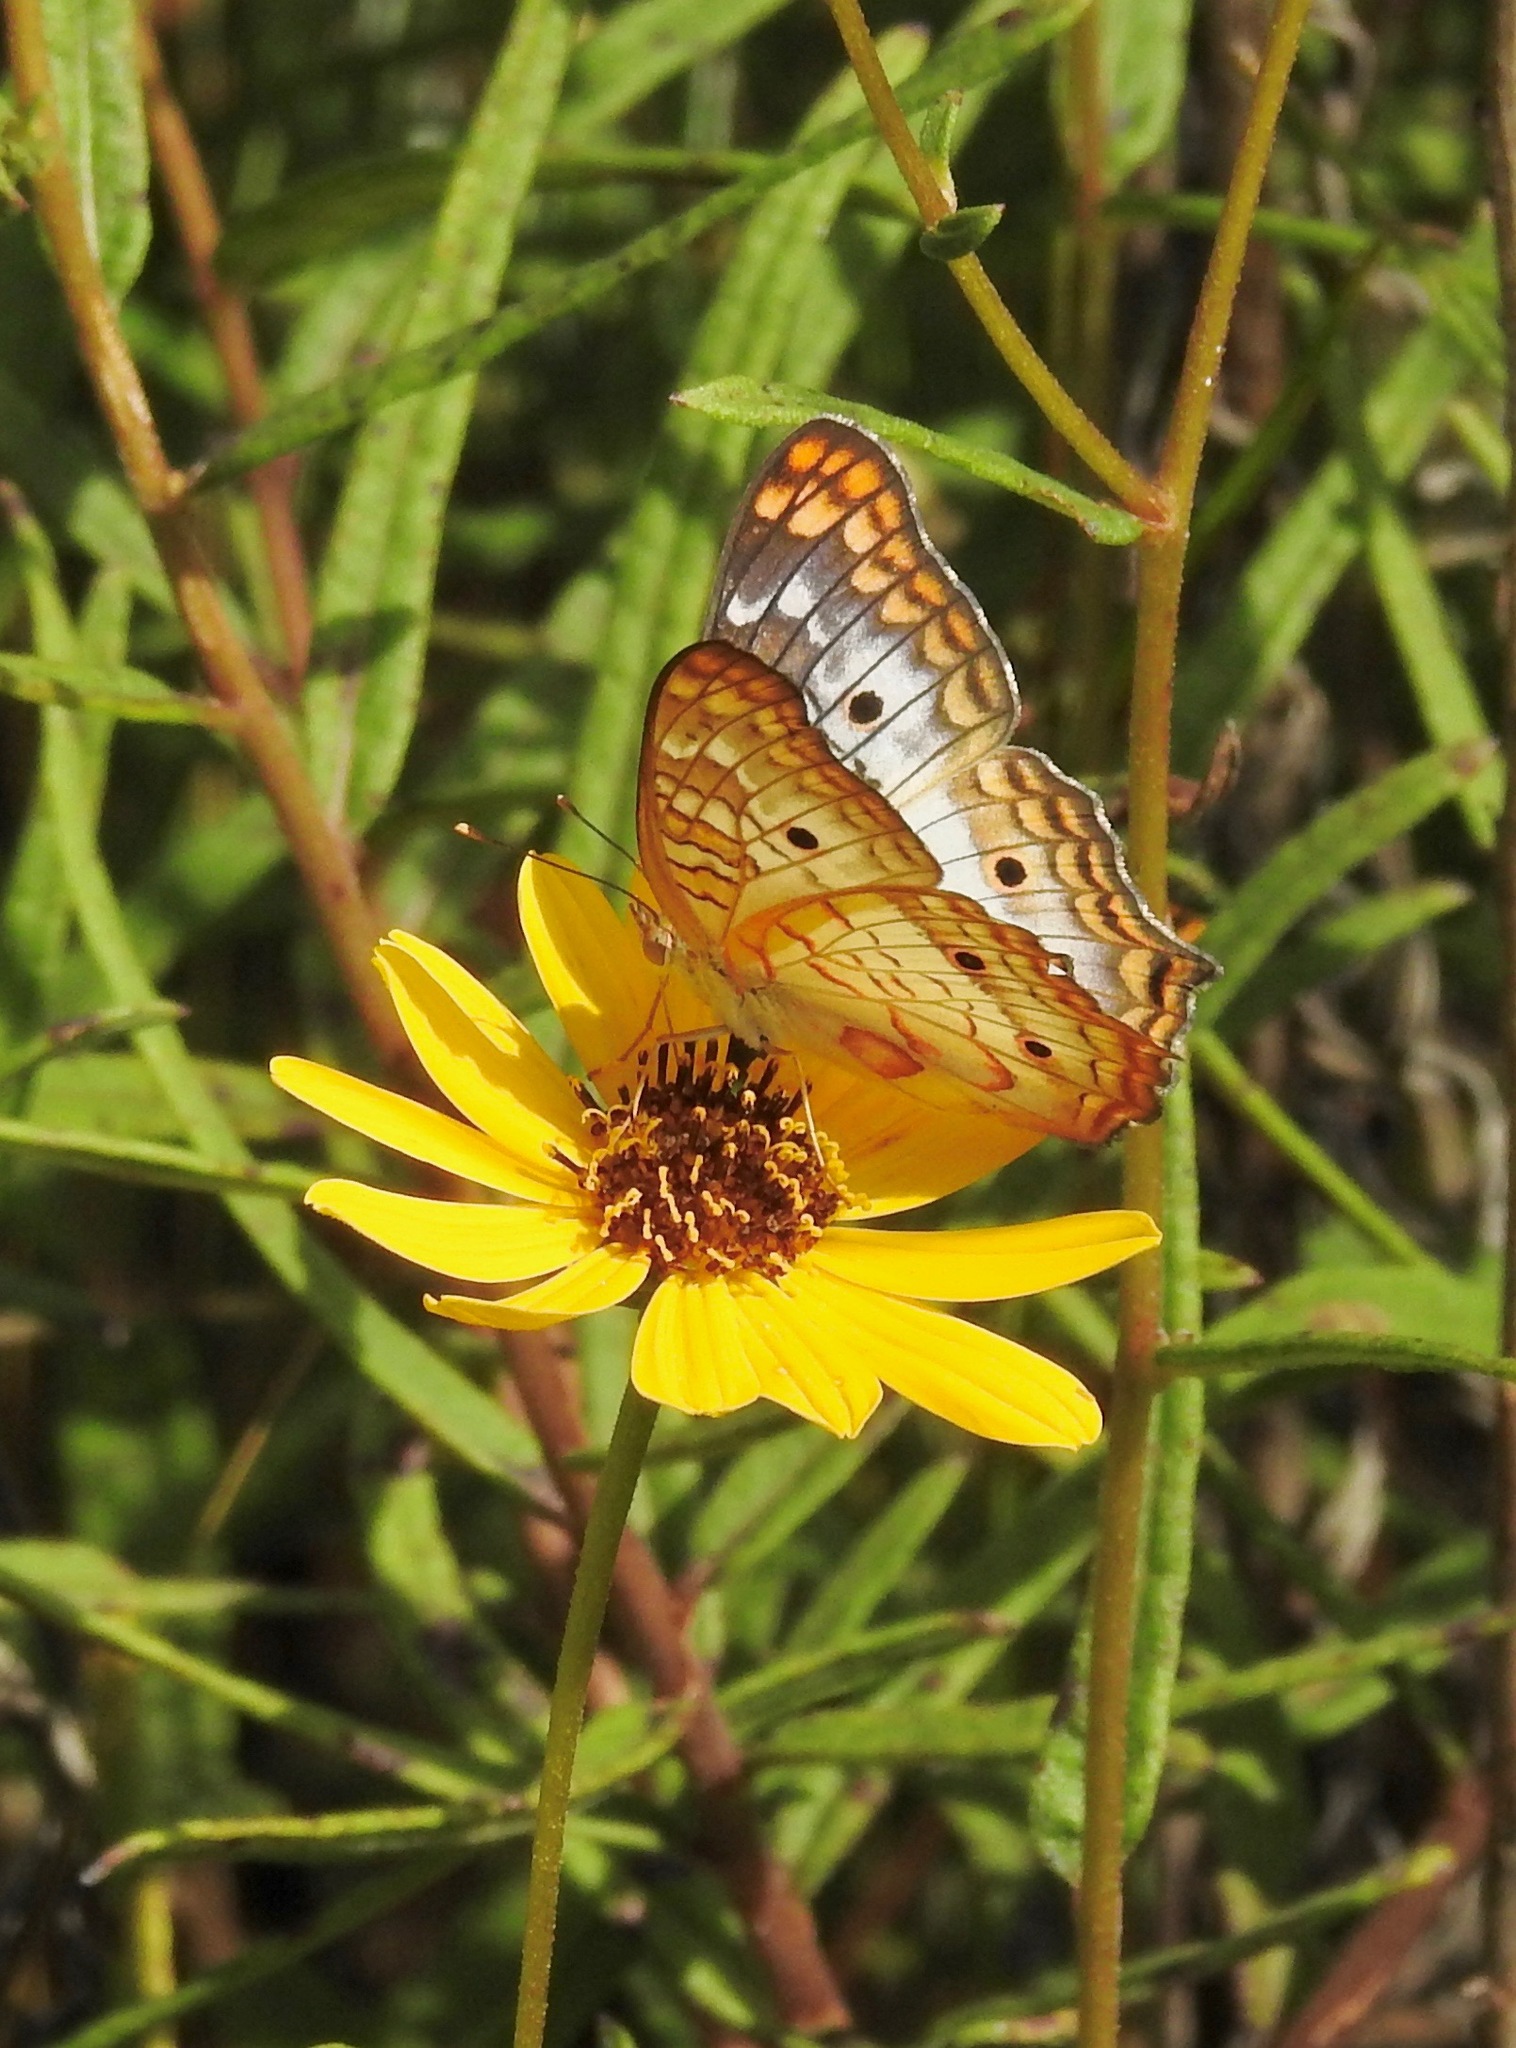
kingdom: Animalia
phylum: Arthropoda
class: Insecta
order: Lepidoptera
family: Nymphalidae
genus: Anartia
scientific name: Anartia jatrophae
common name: White peacock
